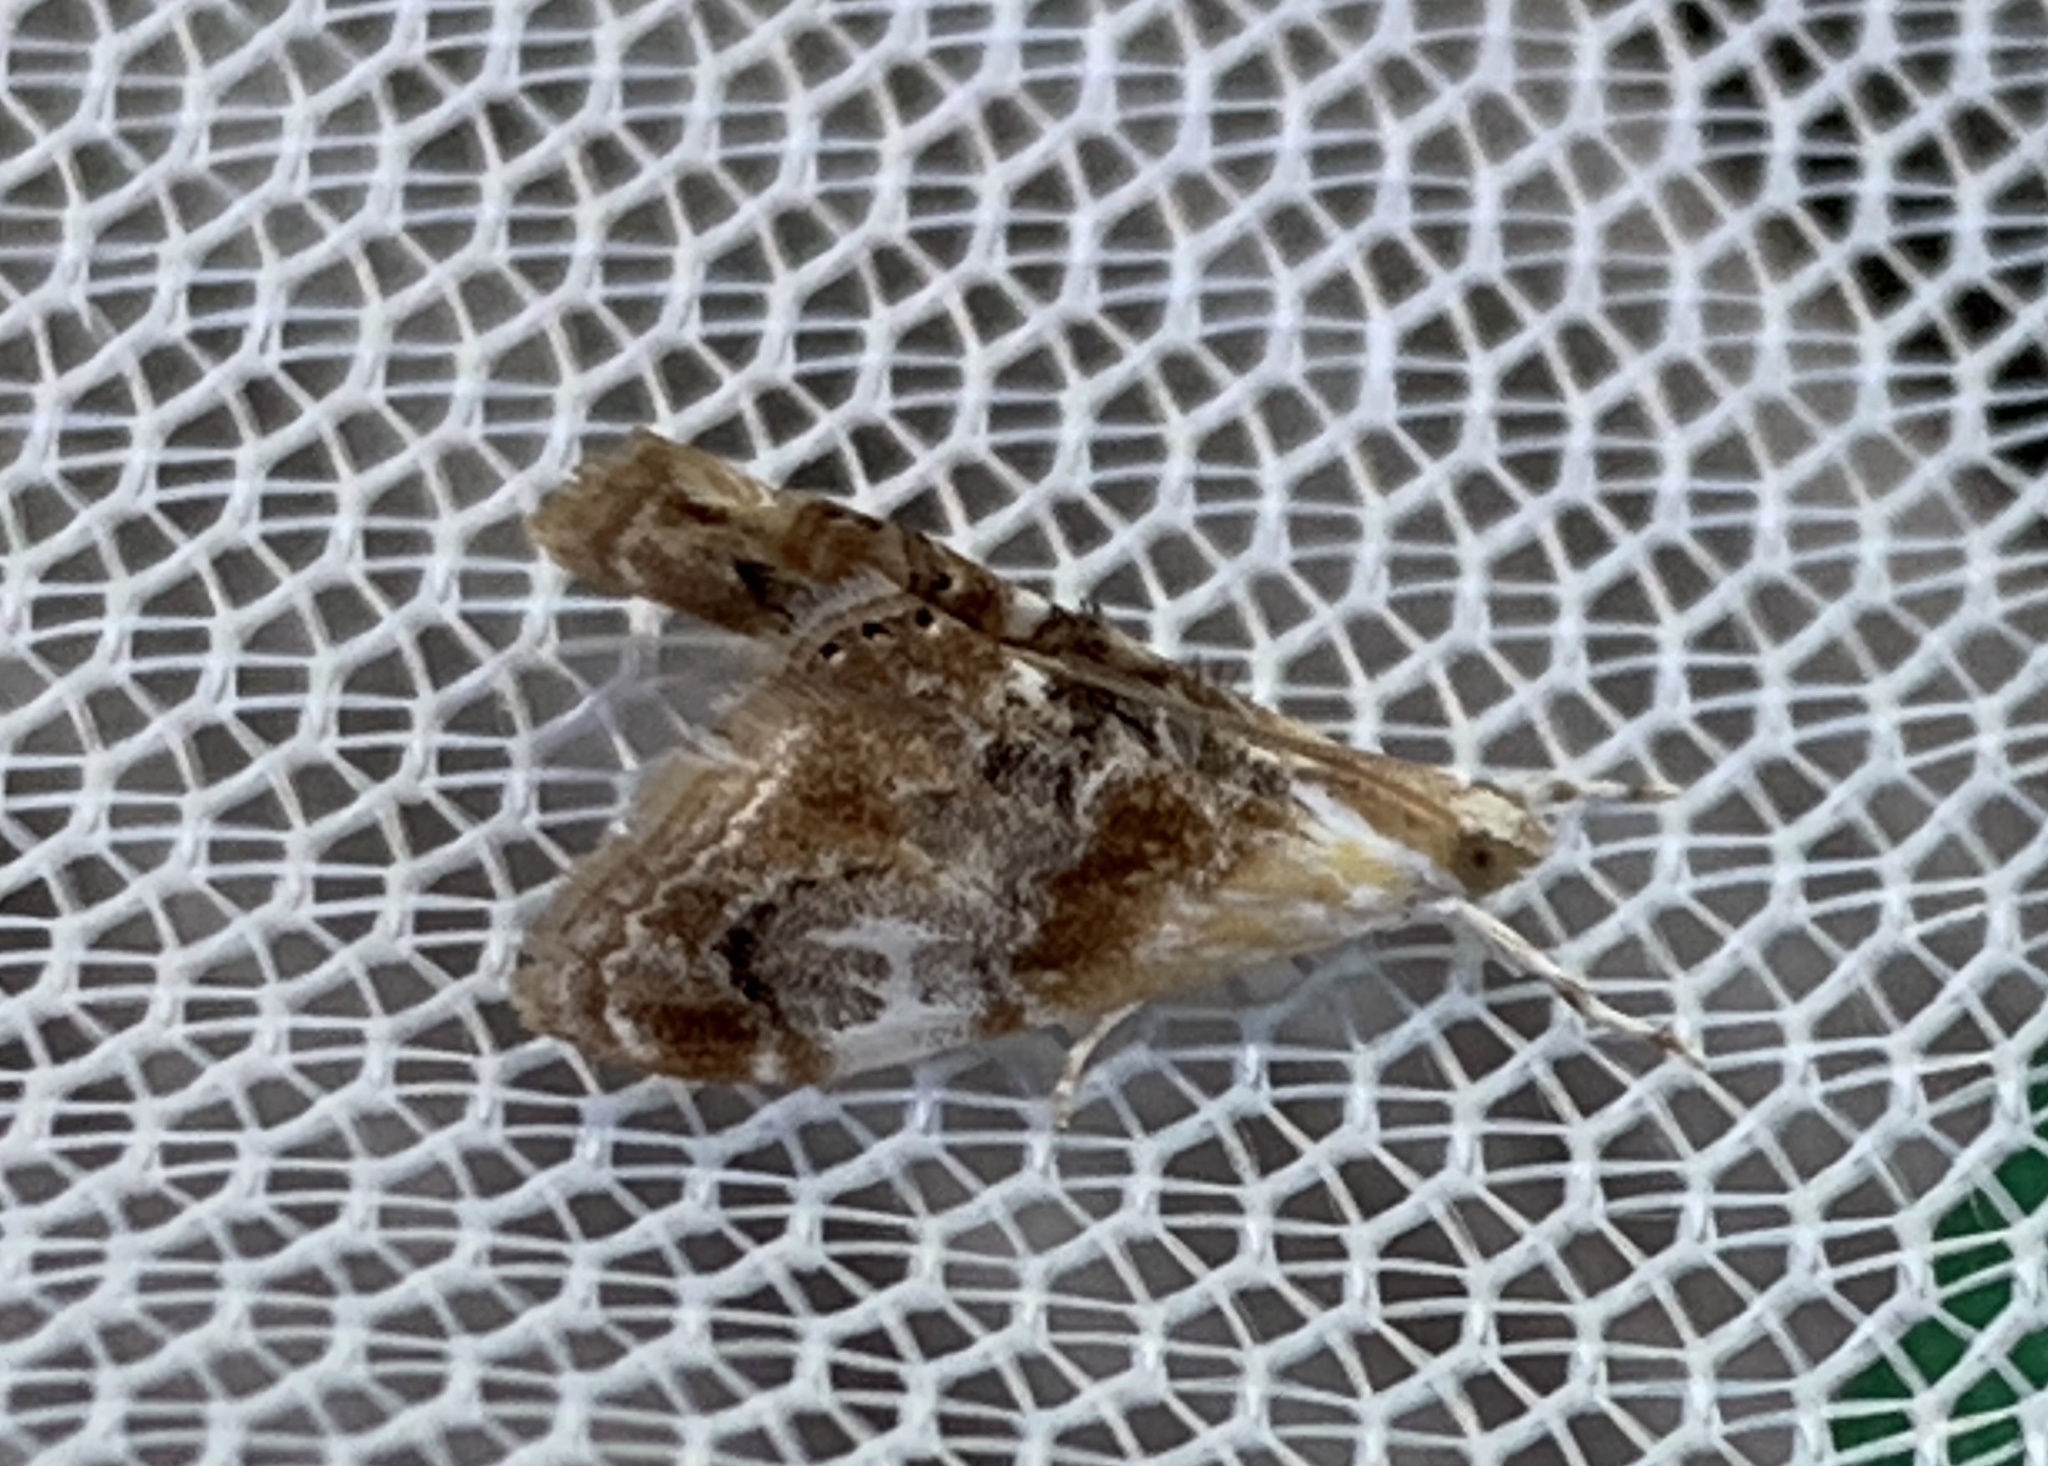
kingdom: Animalia
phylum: Arthropoda
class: Insecta
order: Lepidoptera
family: Crambidae
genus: Dicymolomia
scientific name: Dicymolomia julianalis
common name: Julia's dicymolomia moth
